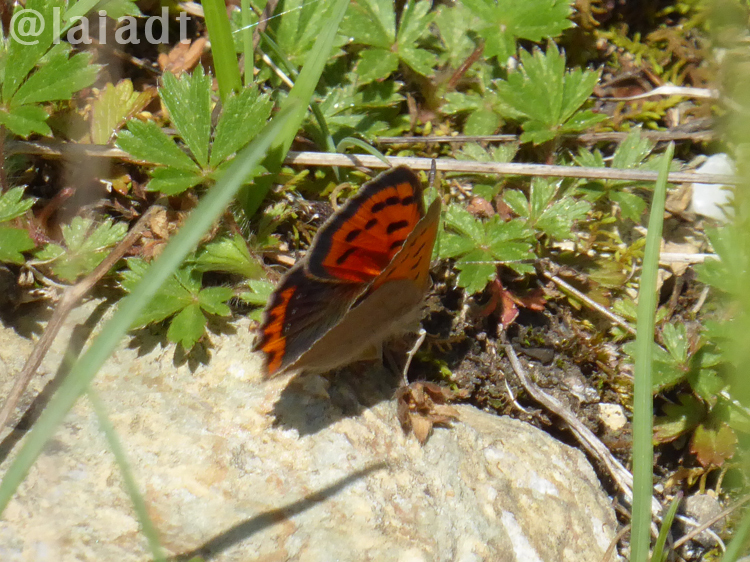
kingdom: Animalia
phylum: Arthropoda
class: Insecta
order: Lepidoptera
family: Lycaenidae
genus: Lycaena
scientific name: Lycaena phlaeas
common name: Small copper
